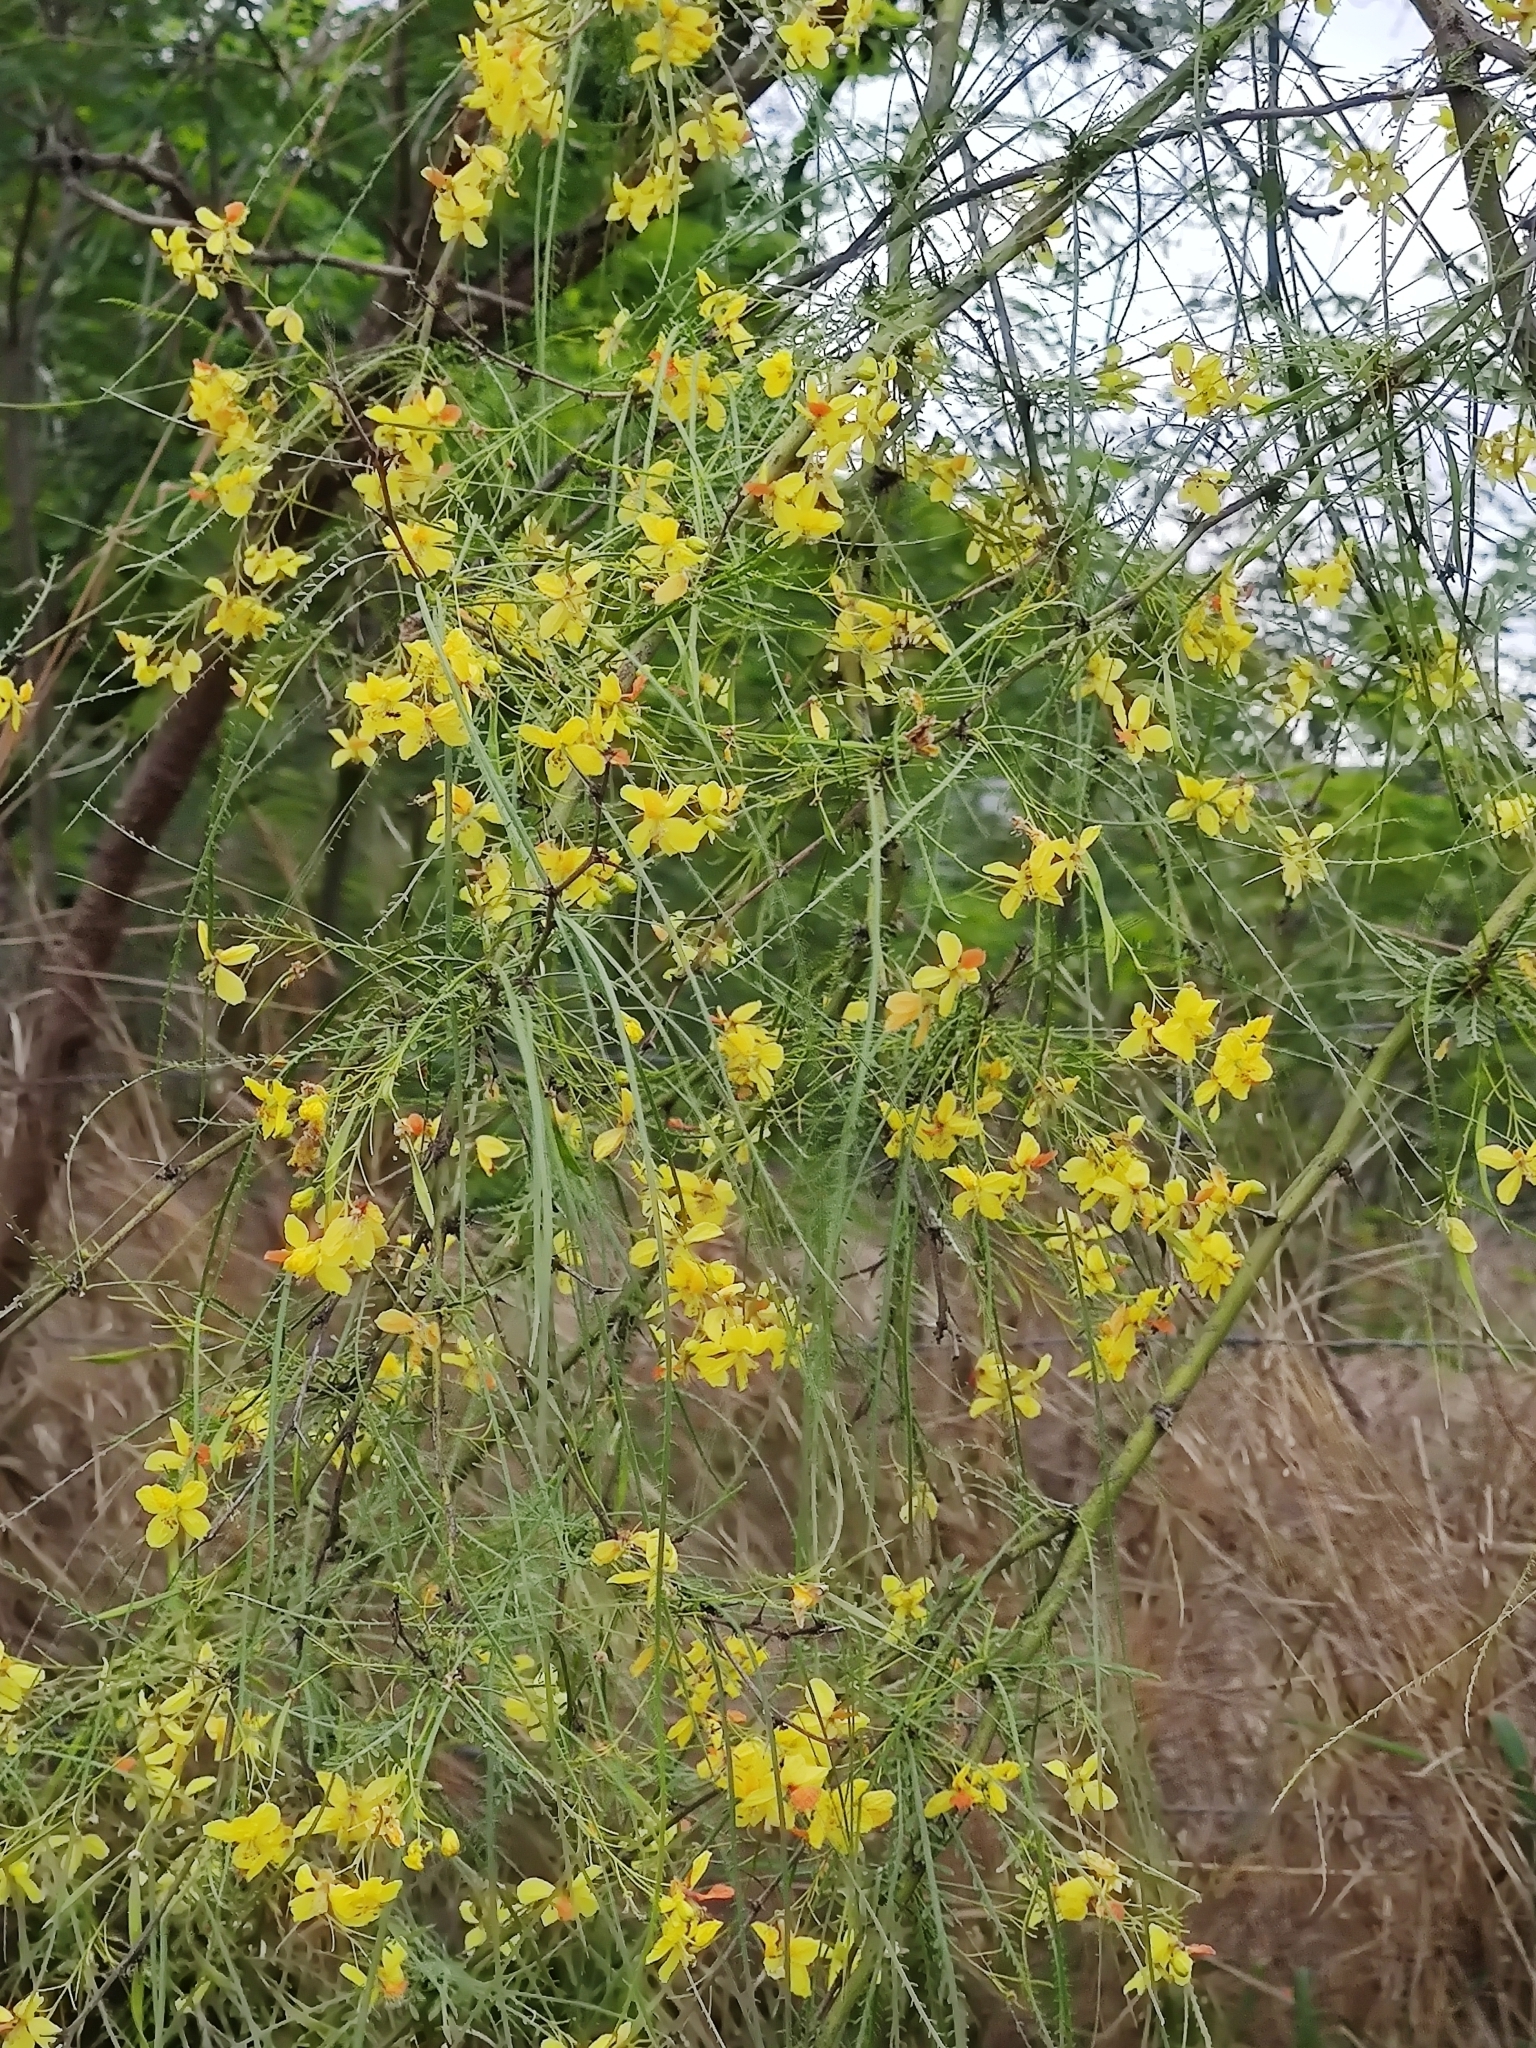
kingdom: Plantae
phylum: Tracheophyta
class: Magnoliopsida
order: Fabales
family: Fabaceae
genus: Parkinsonia
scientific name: Parkinsonia aculeata
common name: Jerusalem thorn
